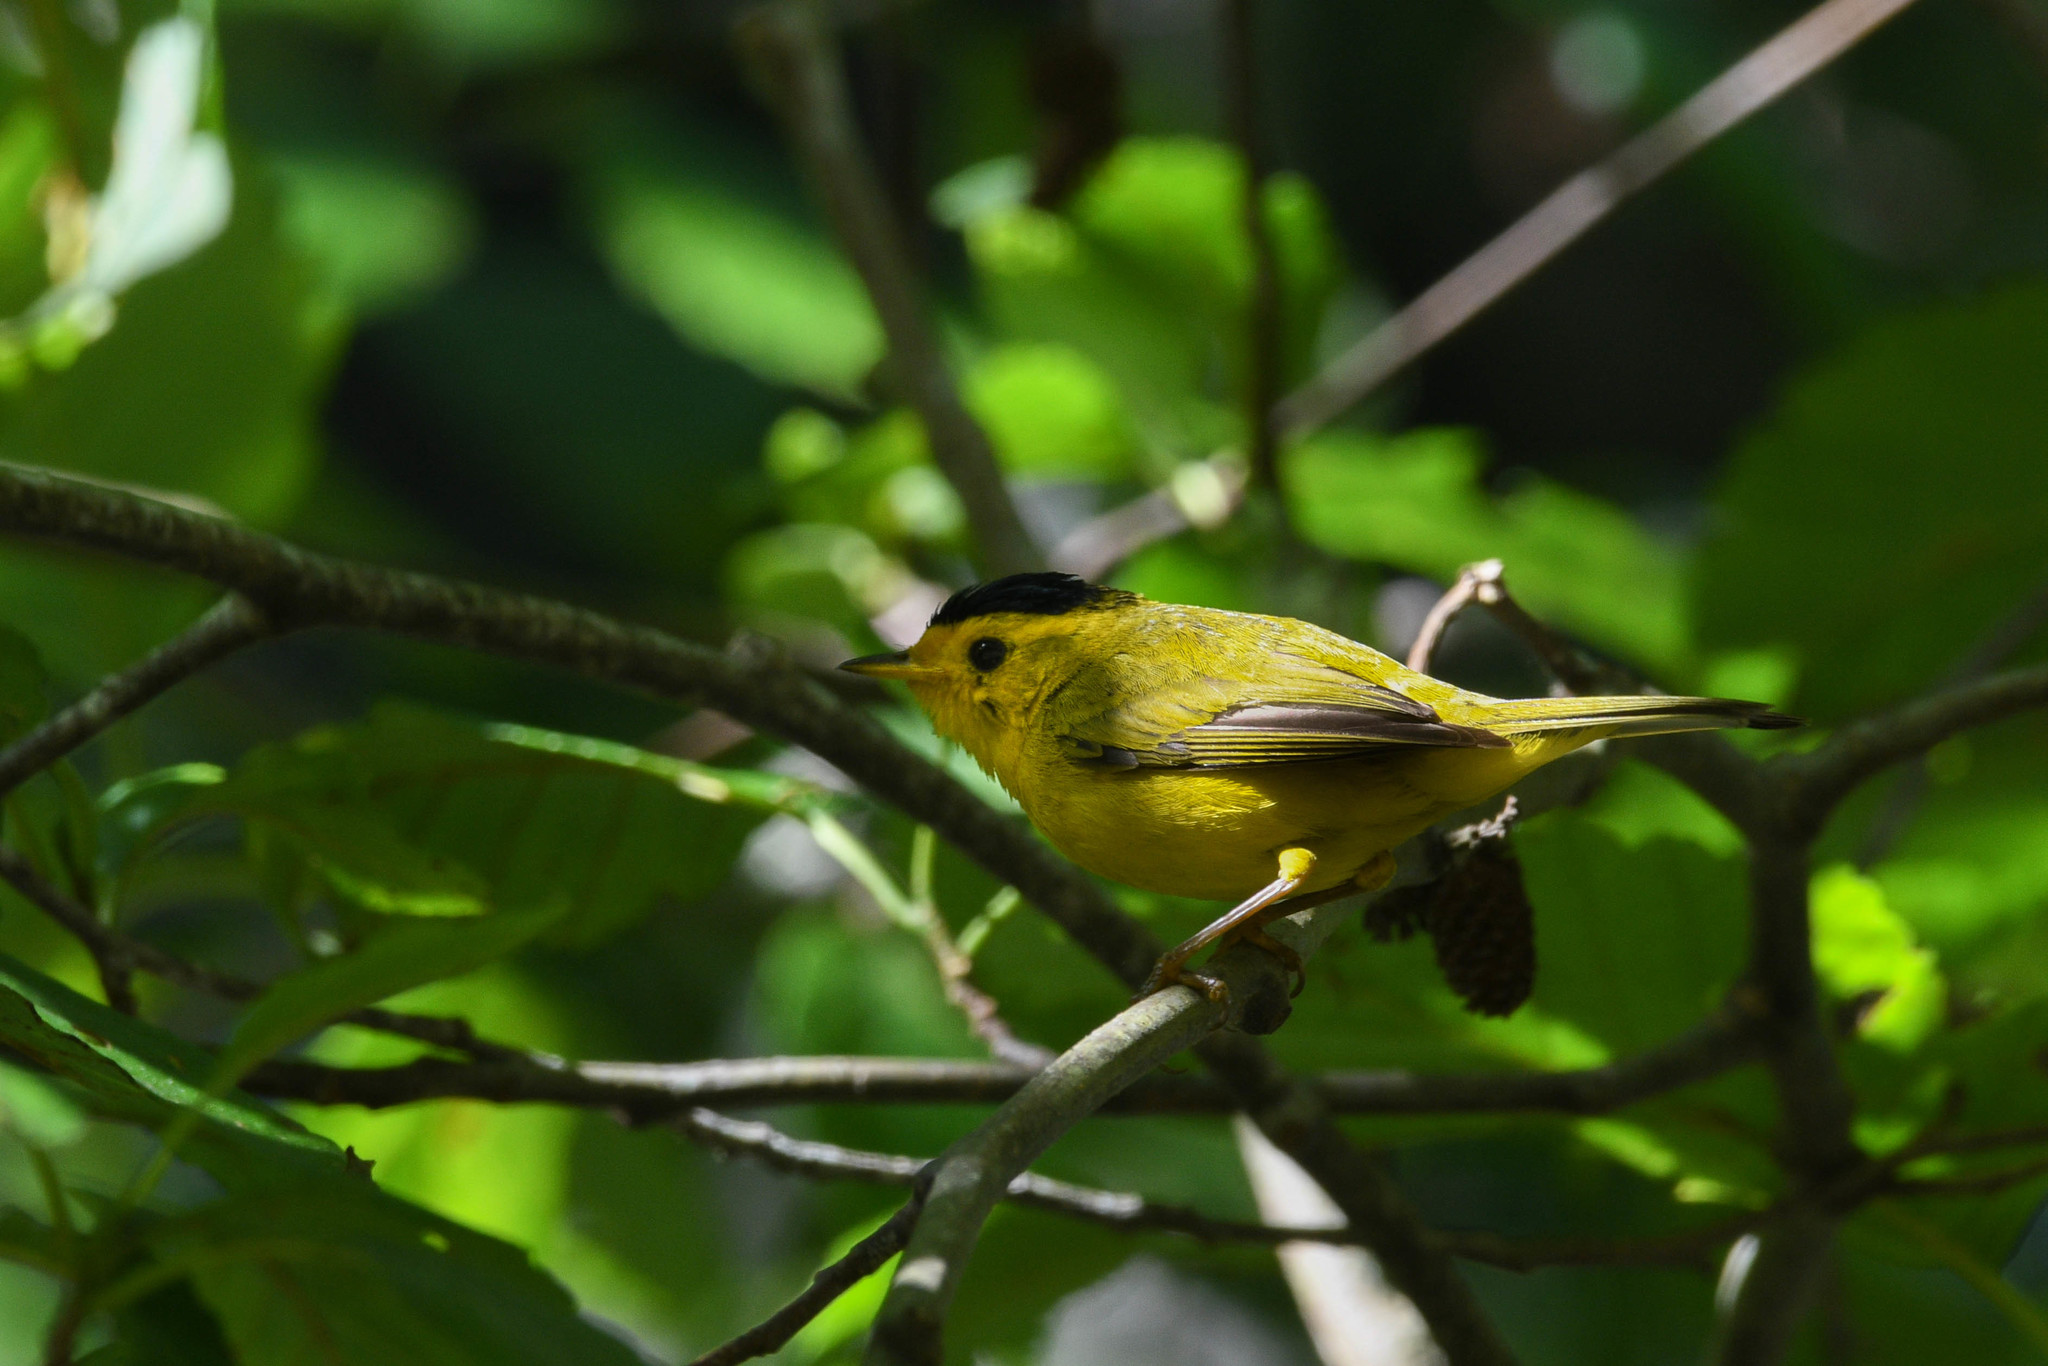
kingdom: Animalia
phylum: Chordata
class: Aves
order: Passeriformes
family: Parulidae
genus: Cardellina
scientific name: Cardellina pusilla
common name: Wilson's warbler
